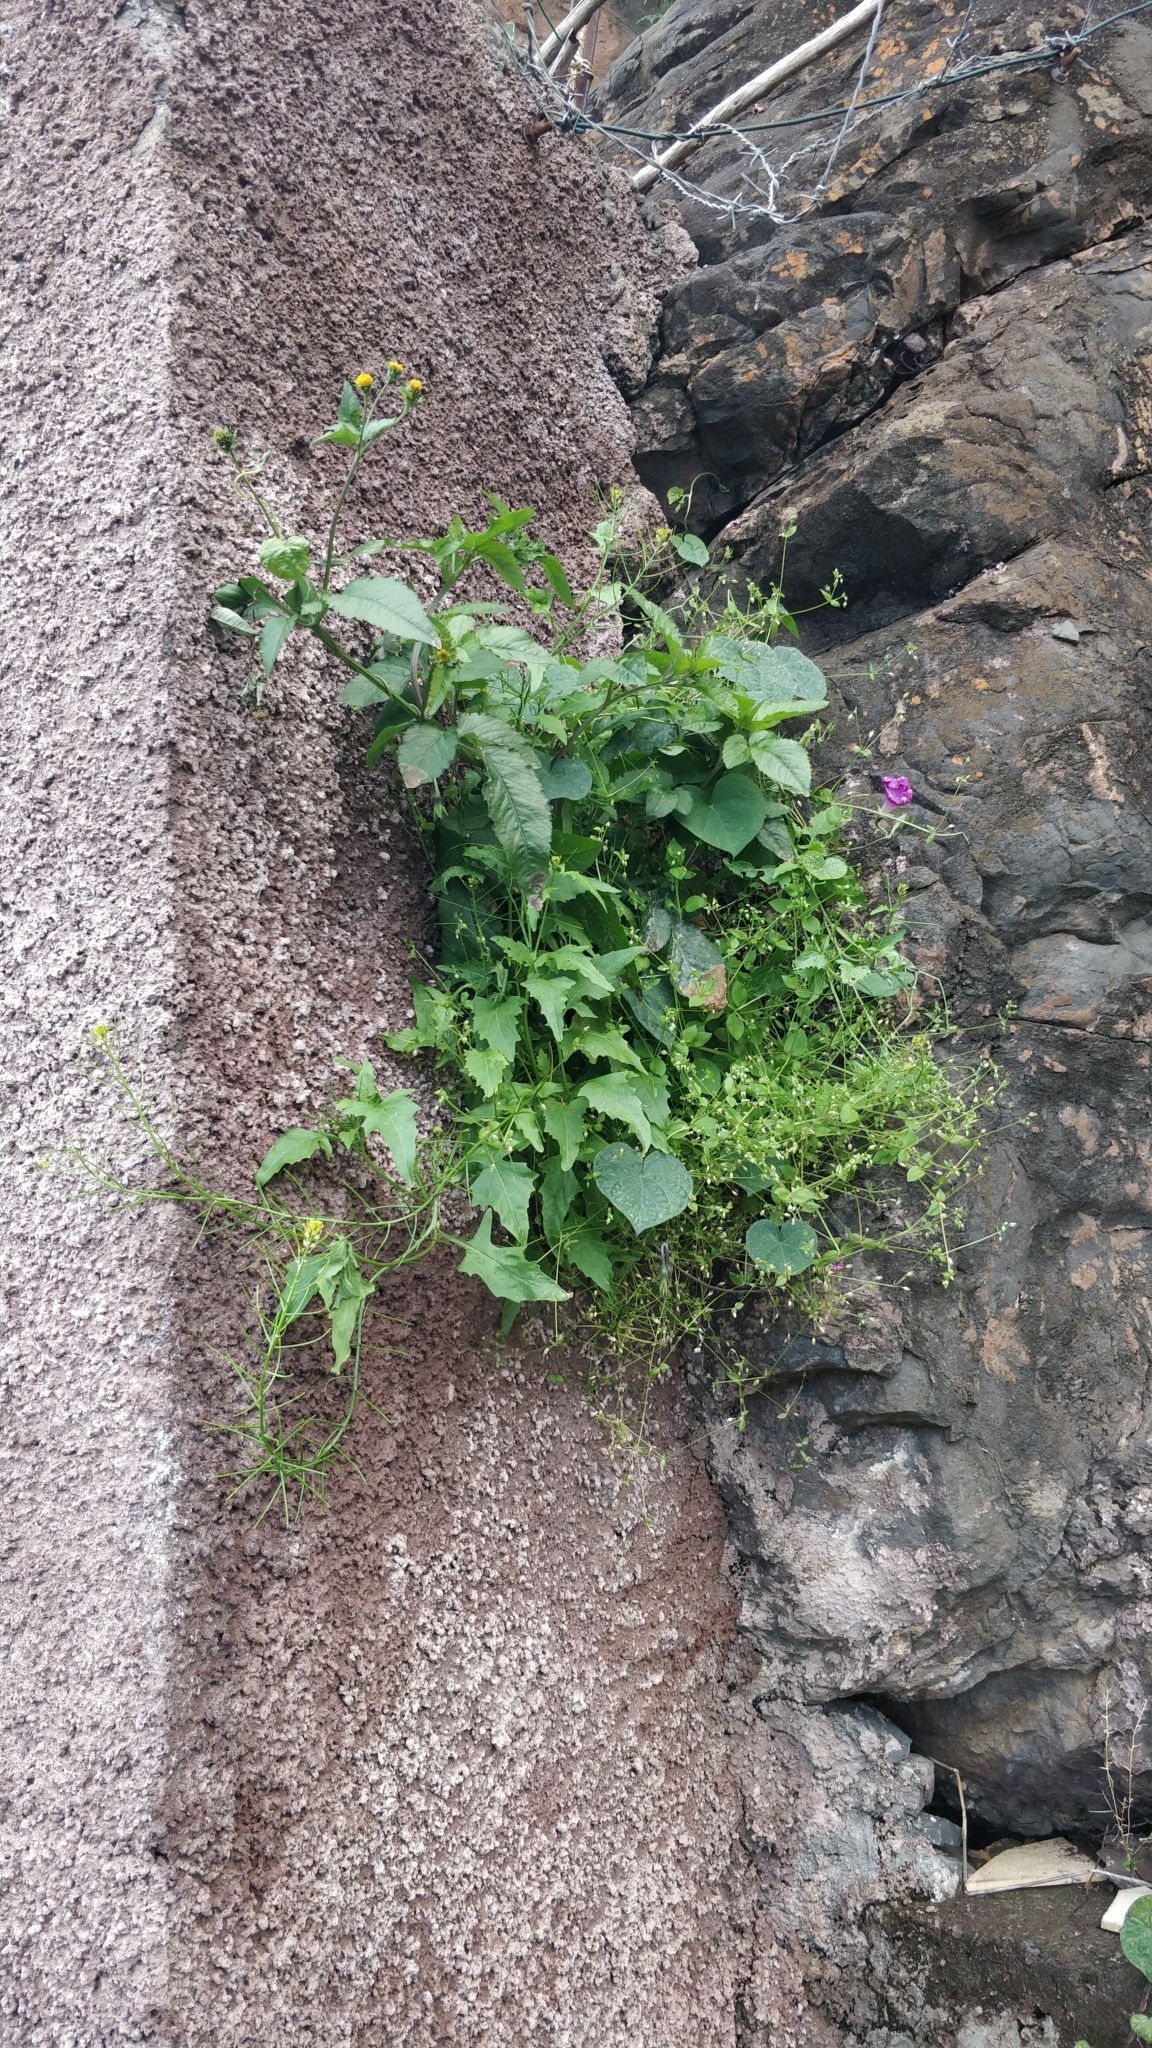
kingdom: Plantae
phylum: Tracheophyta
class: Magnoliopsida
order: Brassicales
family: Brassicaceae
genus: Sisymbrium
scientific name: Sisymbrium erysimoides
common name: French rocket
